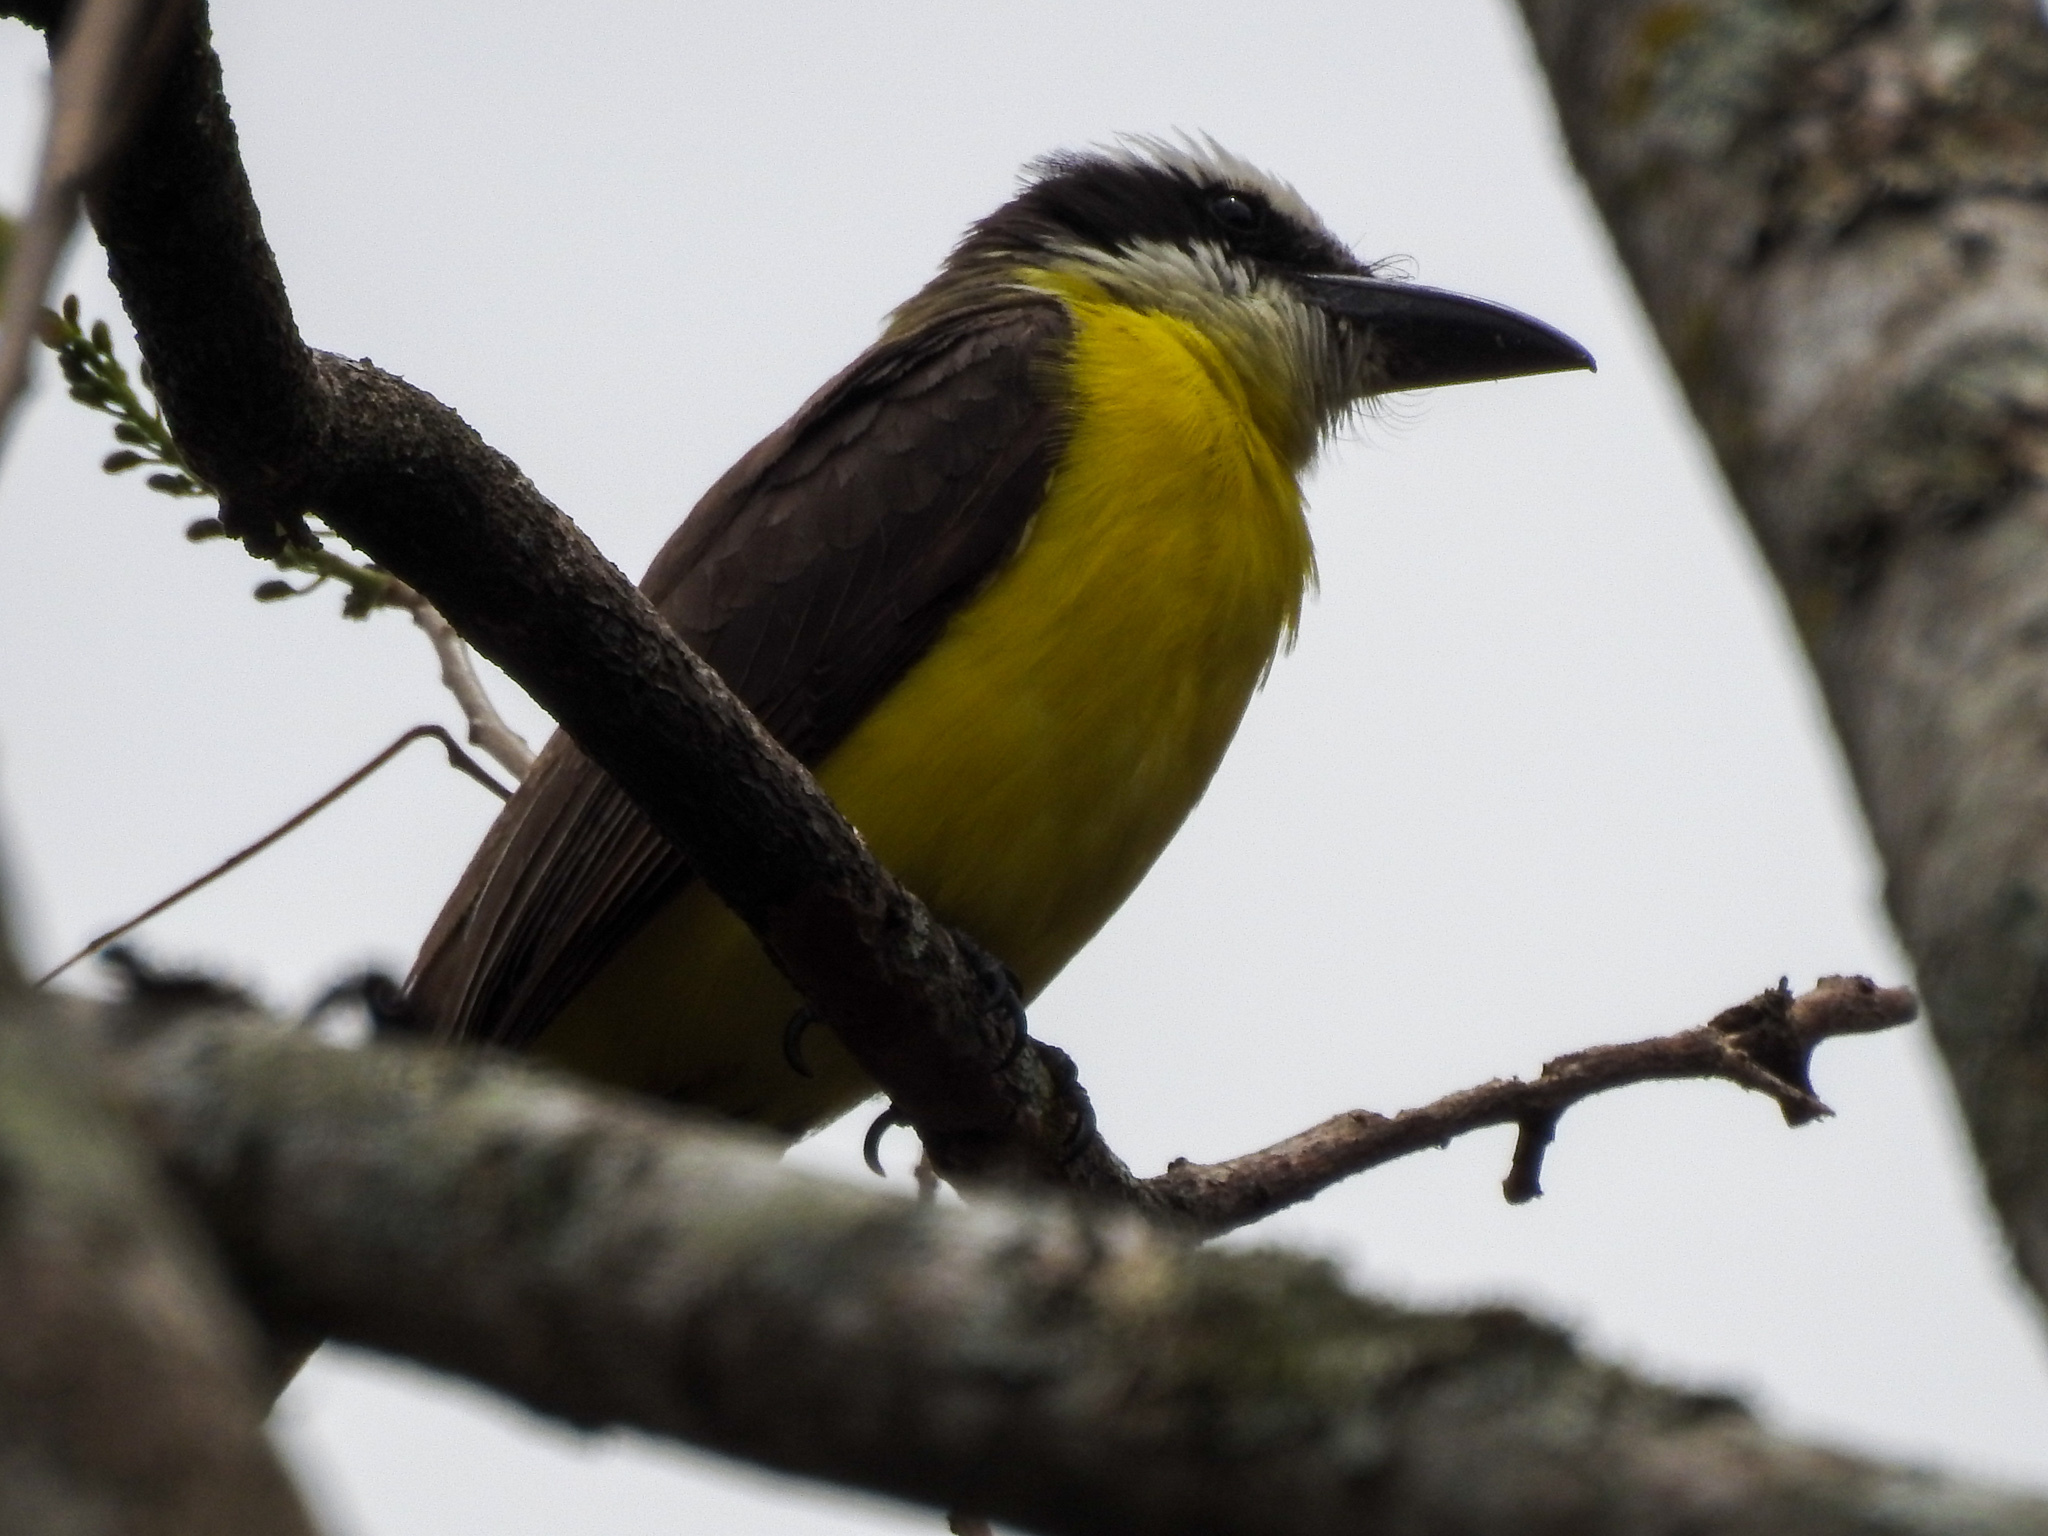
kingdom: Animalia
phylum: Chordata
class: Aves
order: Passeriformes
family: Tyrannidae
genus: Megarynchus
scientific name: Megarynchus pitangua
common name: Boat-billed flycatcher
